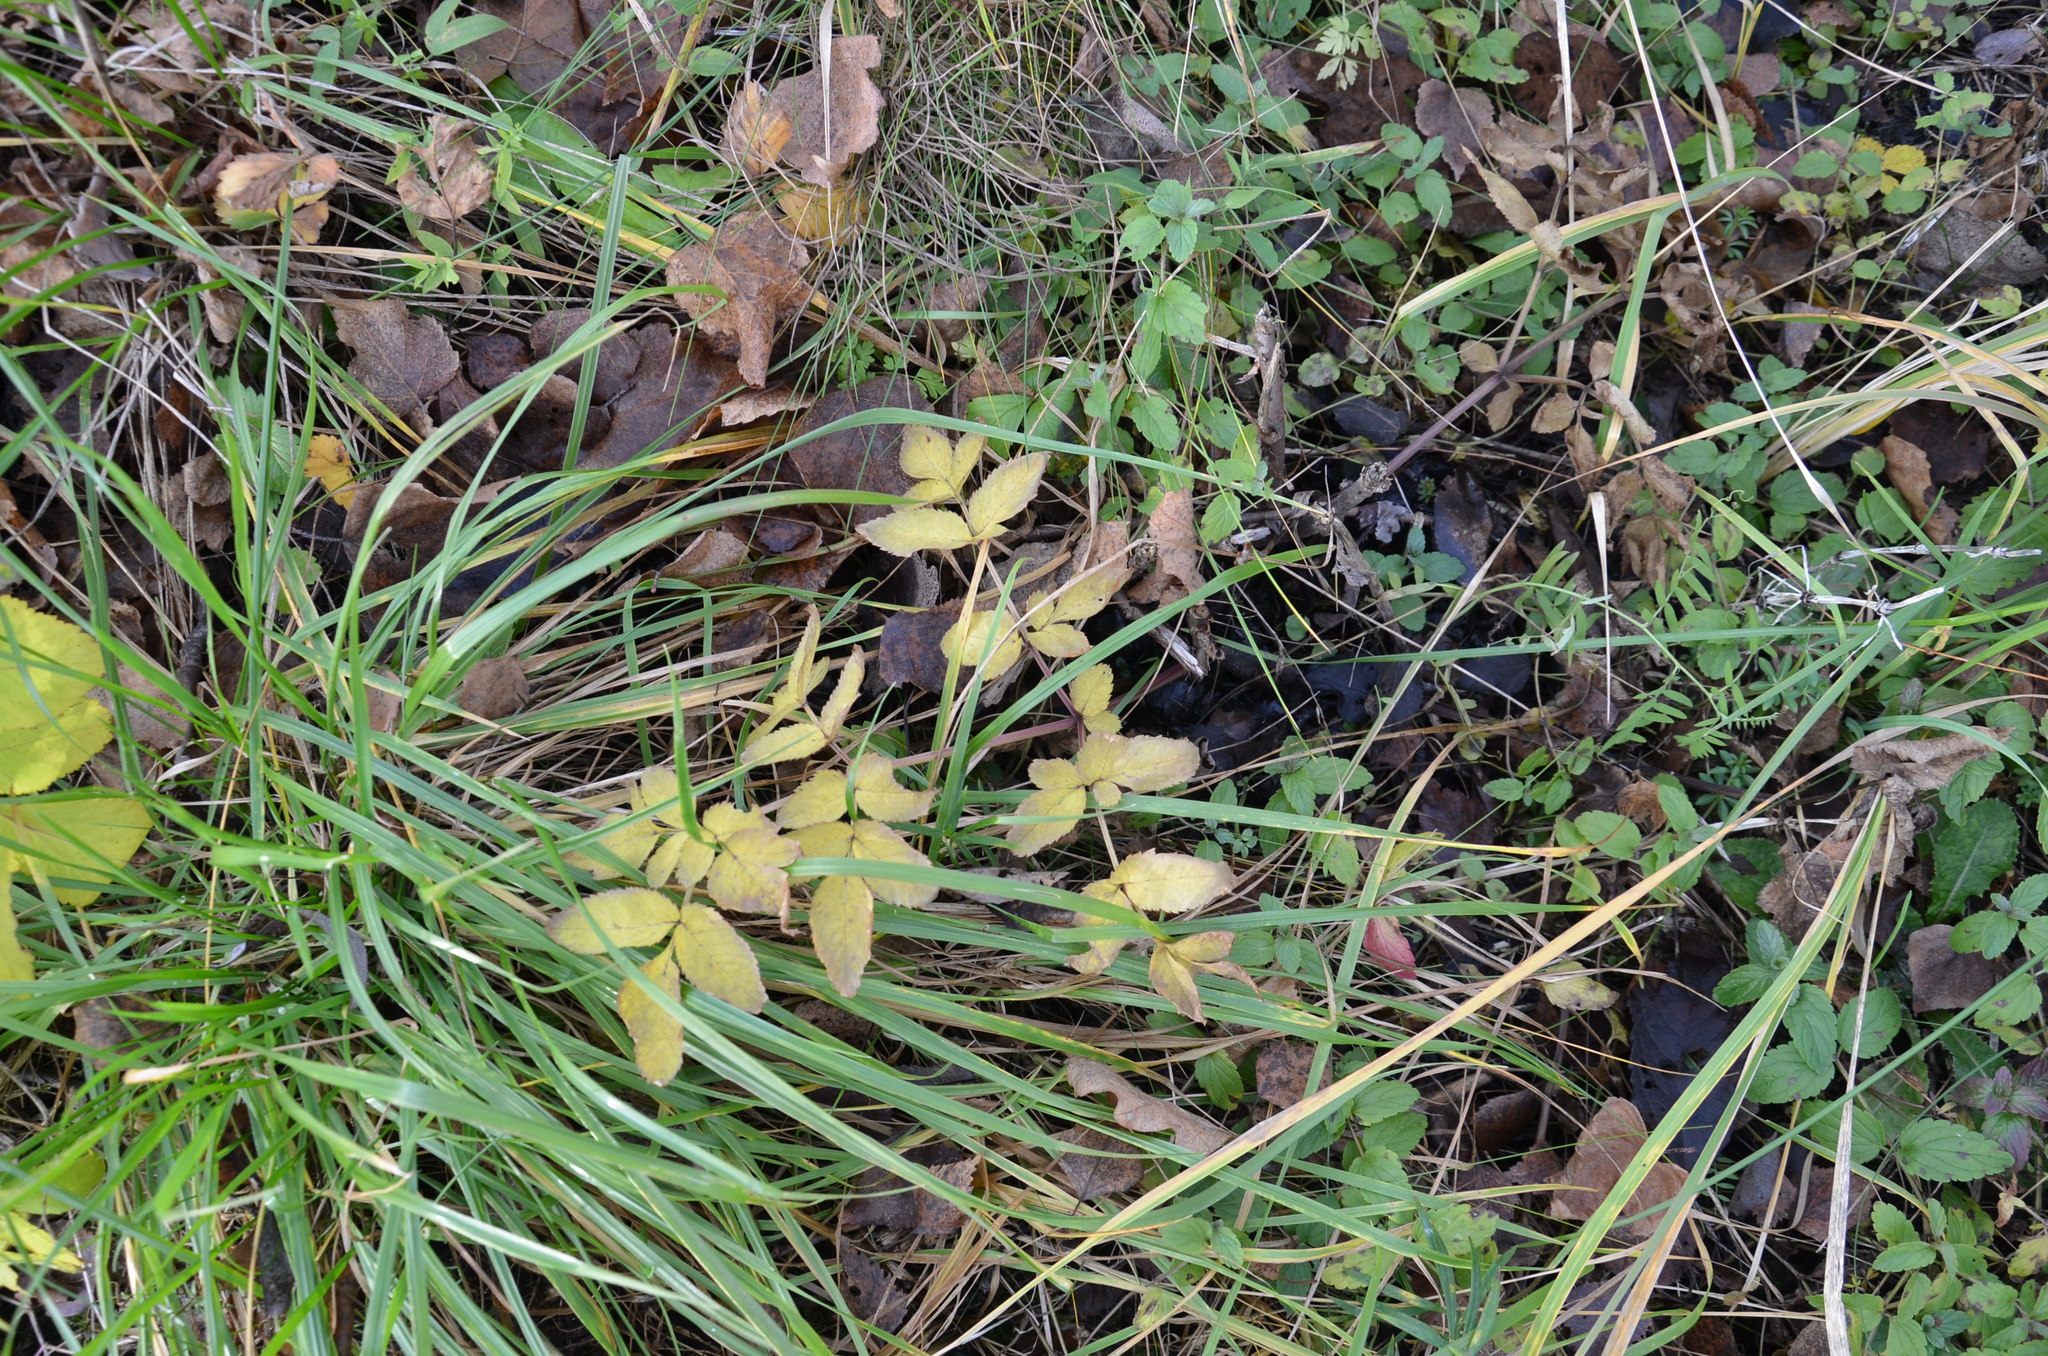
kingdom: Plantae
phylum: Tracheophyta
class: Magnoliopsida
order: Apiales
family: Apiaceae
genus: Angelica
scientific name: Angelica sylvestris
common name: Wild angelica
